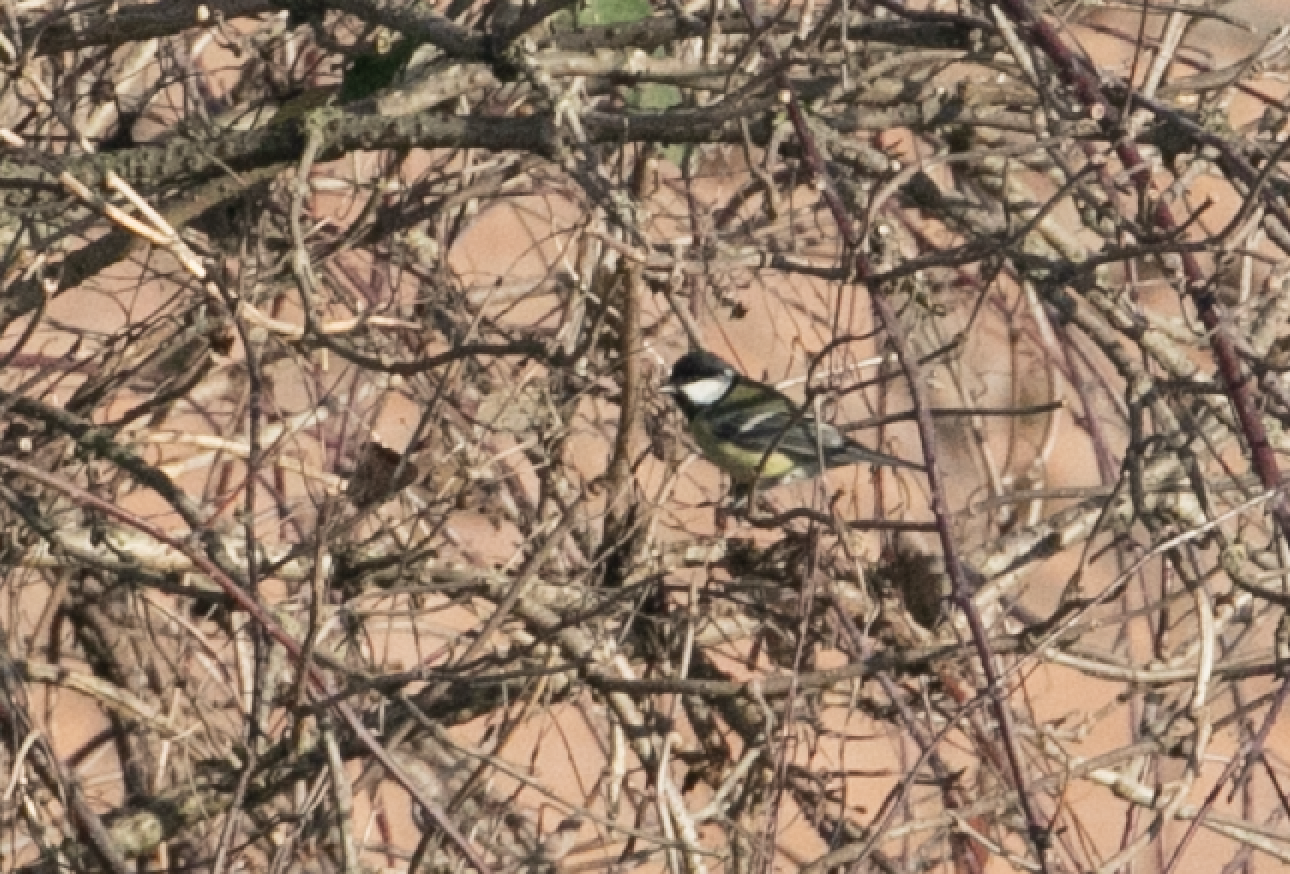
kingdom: Animalia
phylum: Chordata
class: Aves
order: Passeriformes
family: Paridae
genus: Parus
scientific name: Parus major
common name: Great tit
